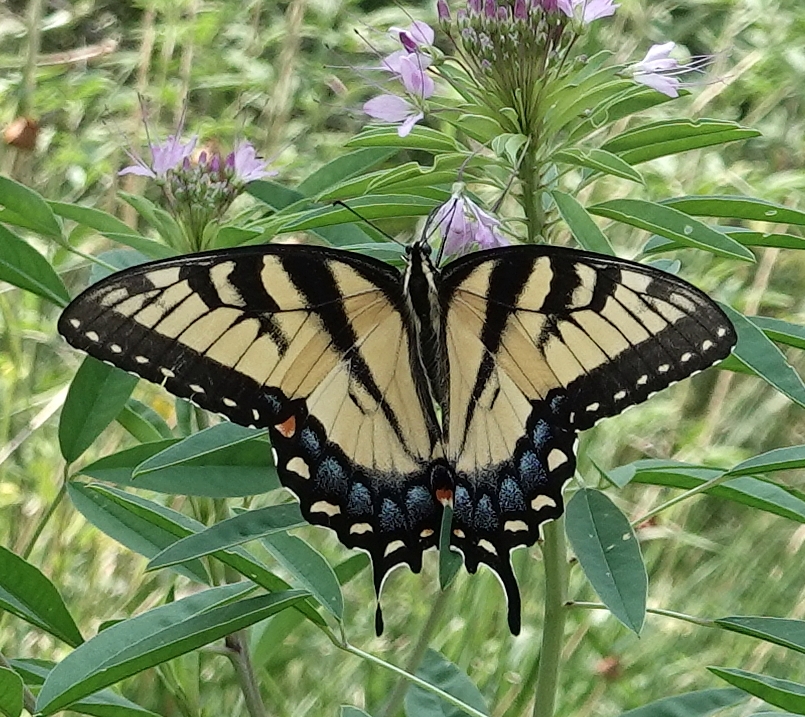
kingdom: Animalia
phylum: Arthropoda
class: Insecta
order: Lepidoptera
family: Papilionidae
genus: Papilio
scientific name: Papilio glaucus
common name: Tiger swallowtail
